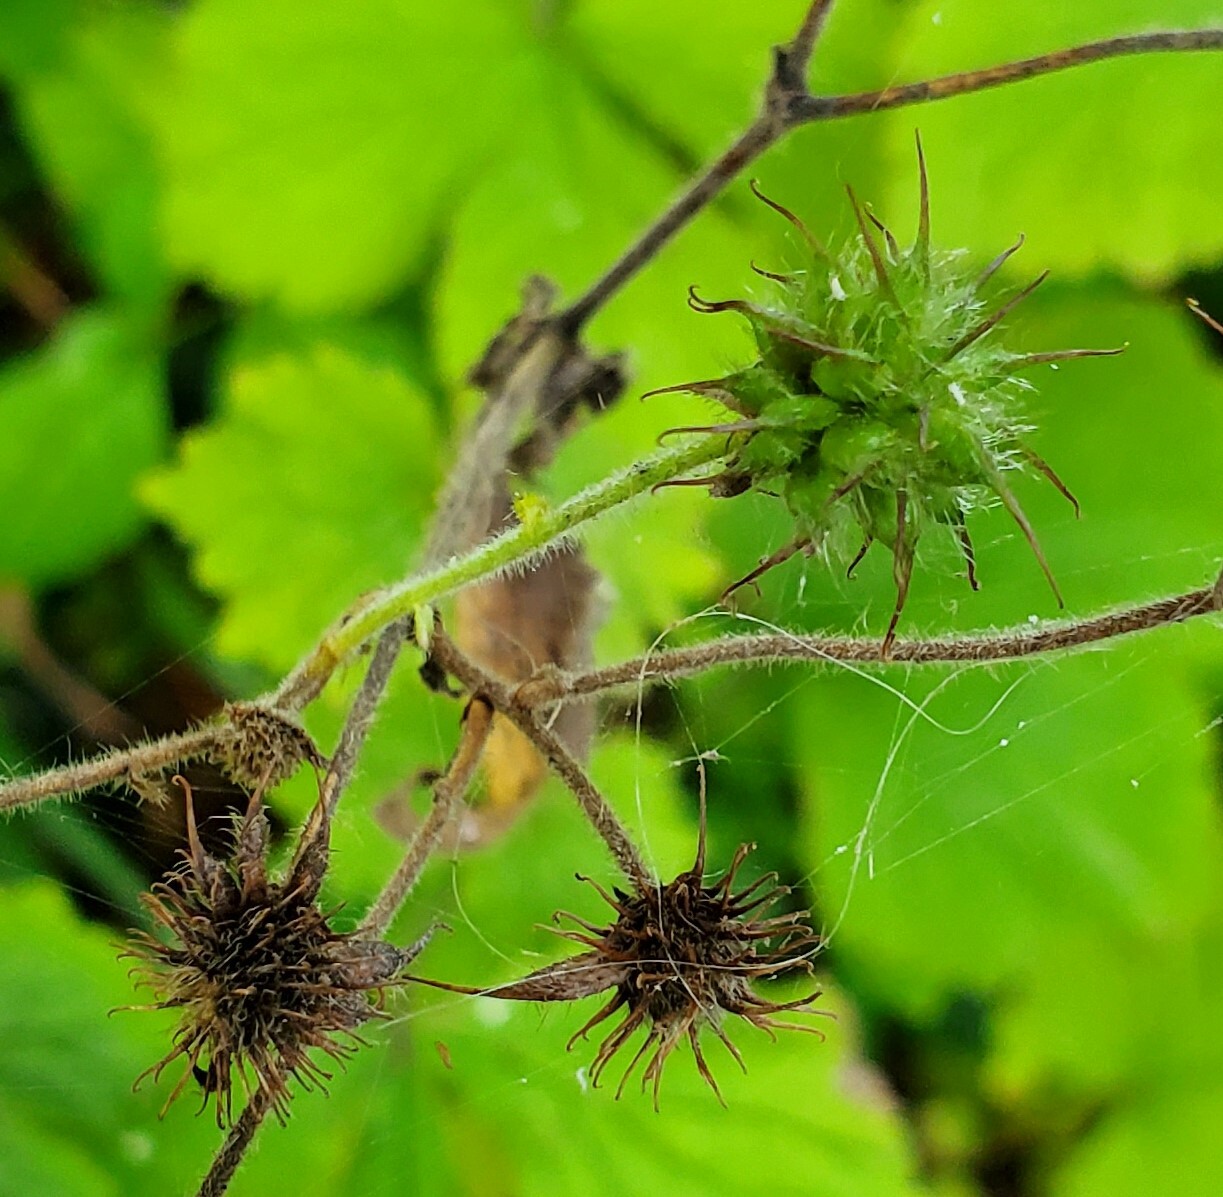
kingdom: Plantae
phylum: Tracheophyta
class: Magnoliopsida
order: Rosales
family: Rosaceae
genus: Geum
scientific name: Geum urbanum
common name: Wood avens
